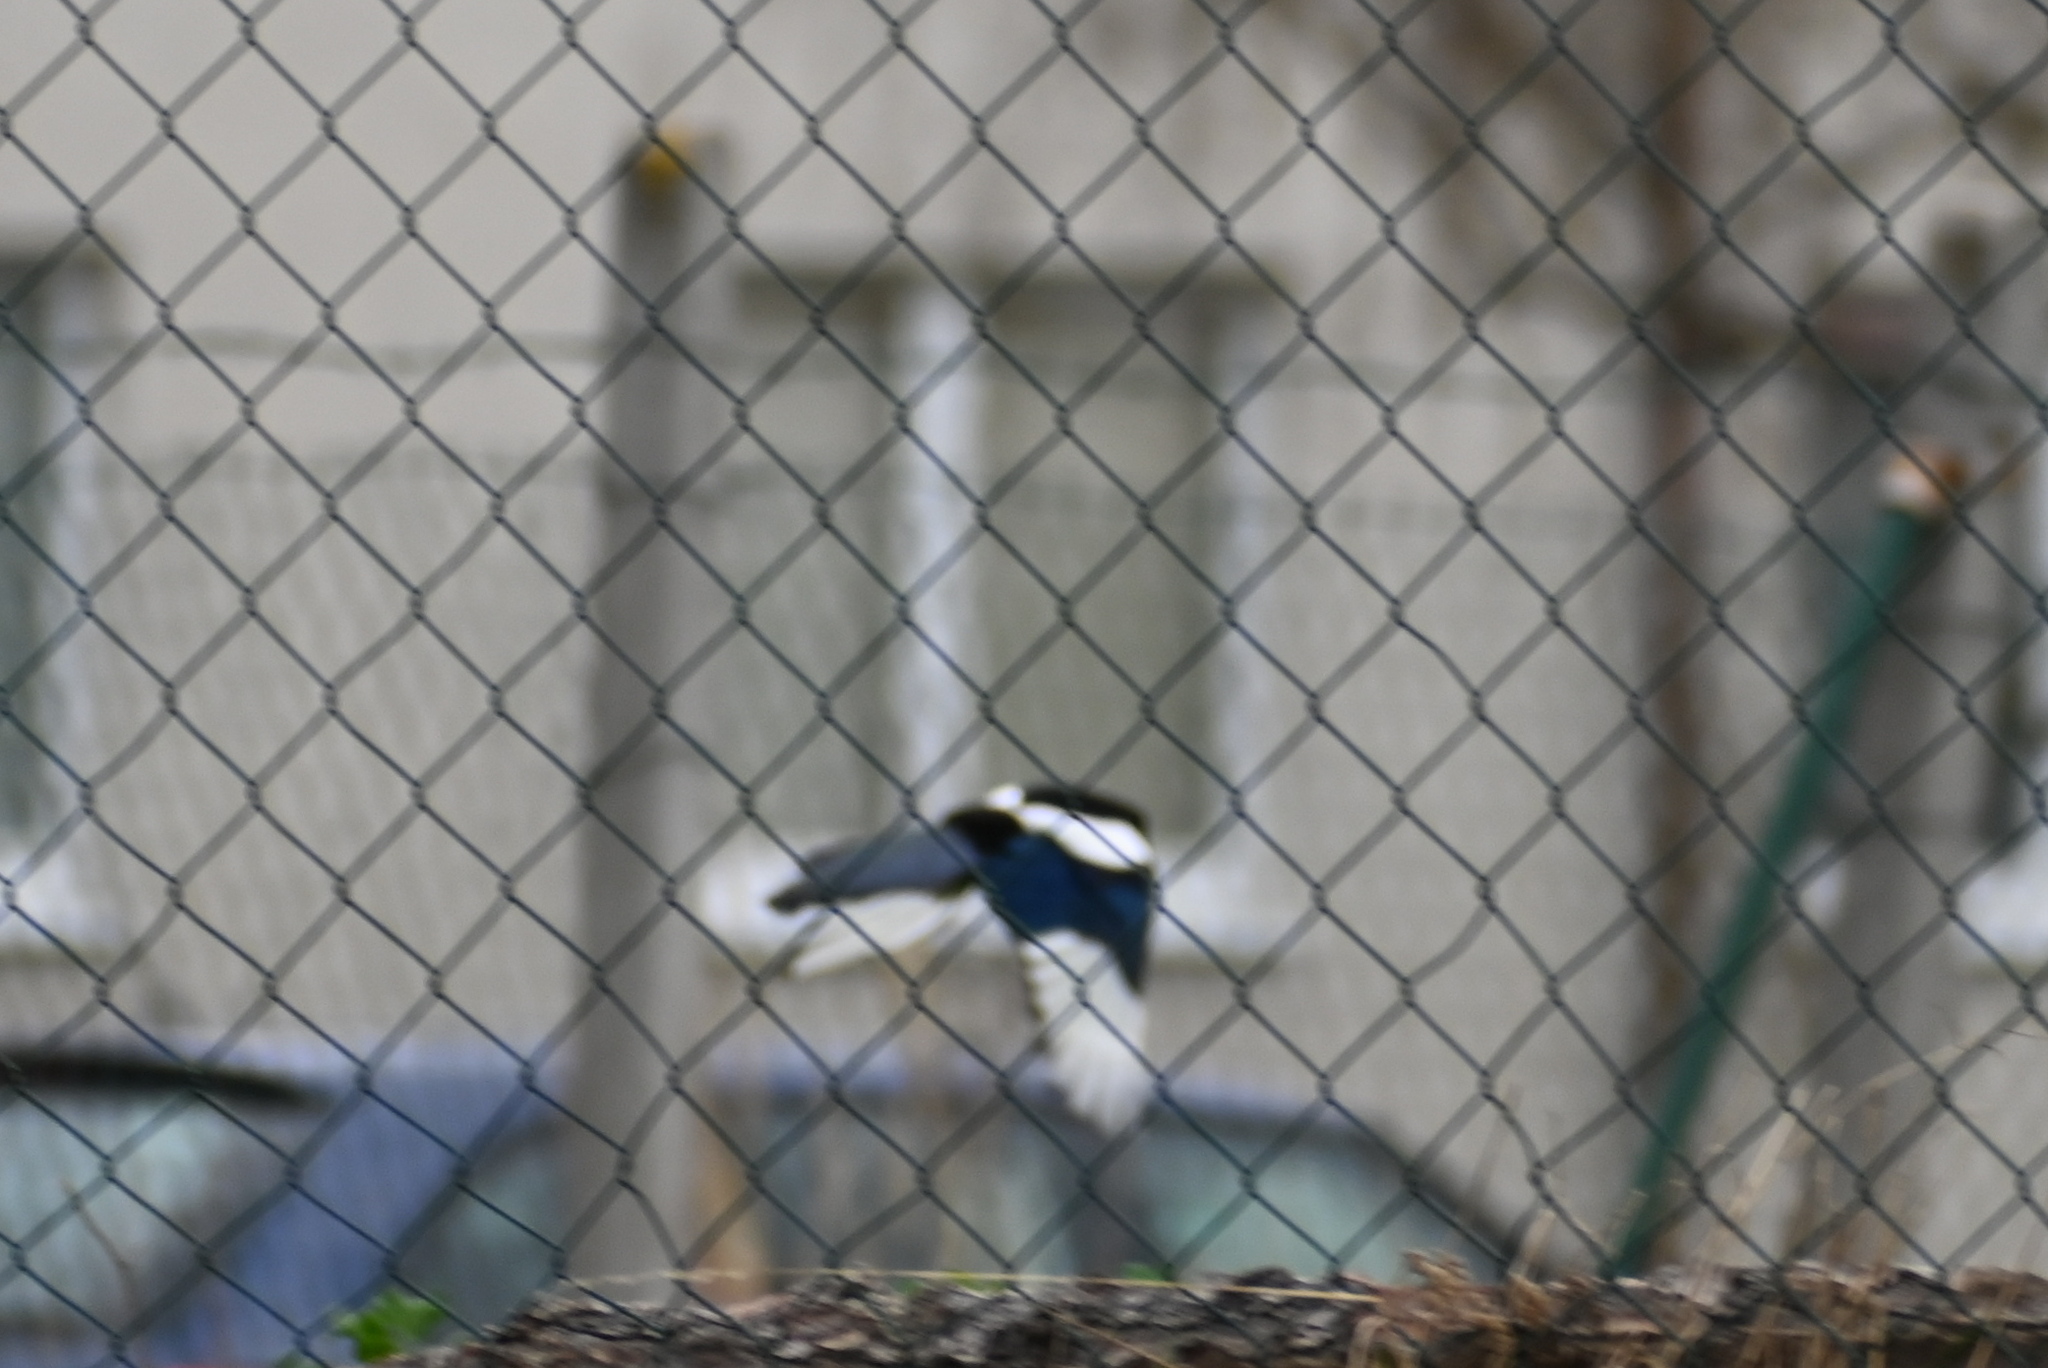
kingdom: Animalia
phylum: Chordata
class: Aves
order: Passeriformes
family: Corvidae
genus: Pica
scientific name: Pica pica
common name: Eurasian magpie
